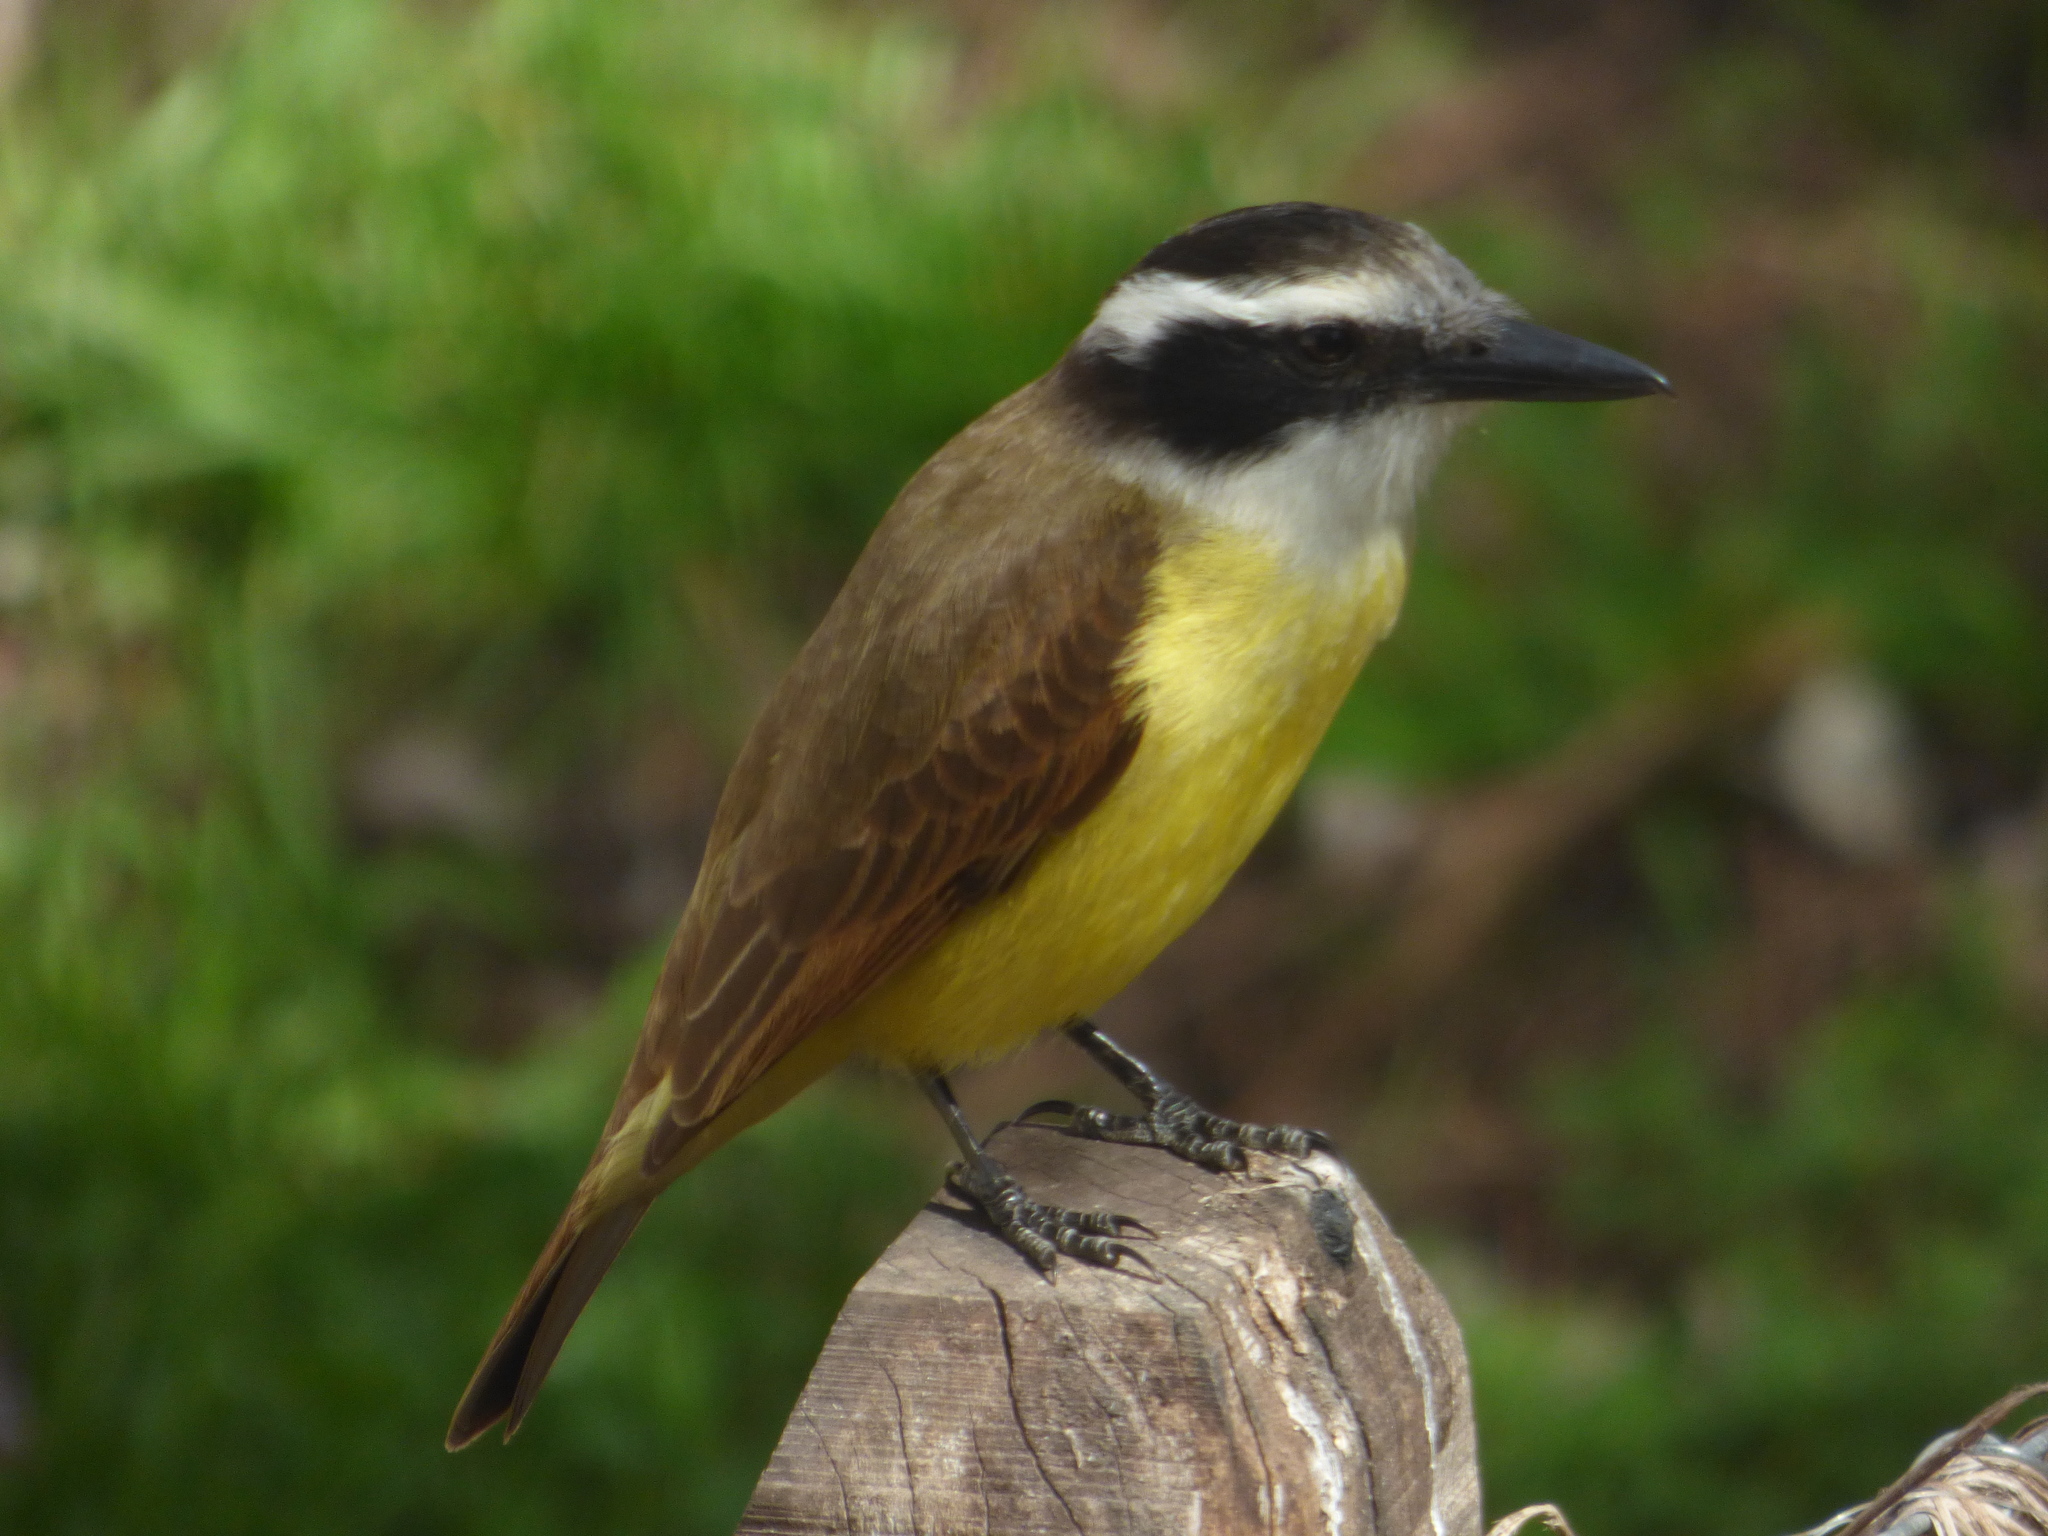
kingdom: Animalia
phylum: Chordata
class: Aves
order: Passeriformes
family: Tyrannidae
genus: Pitangus
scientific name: Pitangus sulphuratus
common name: Great kiskadee
